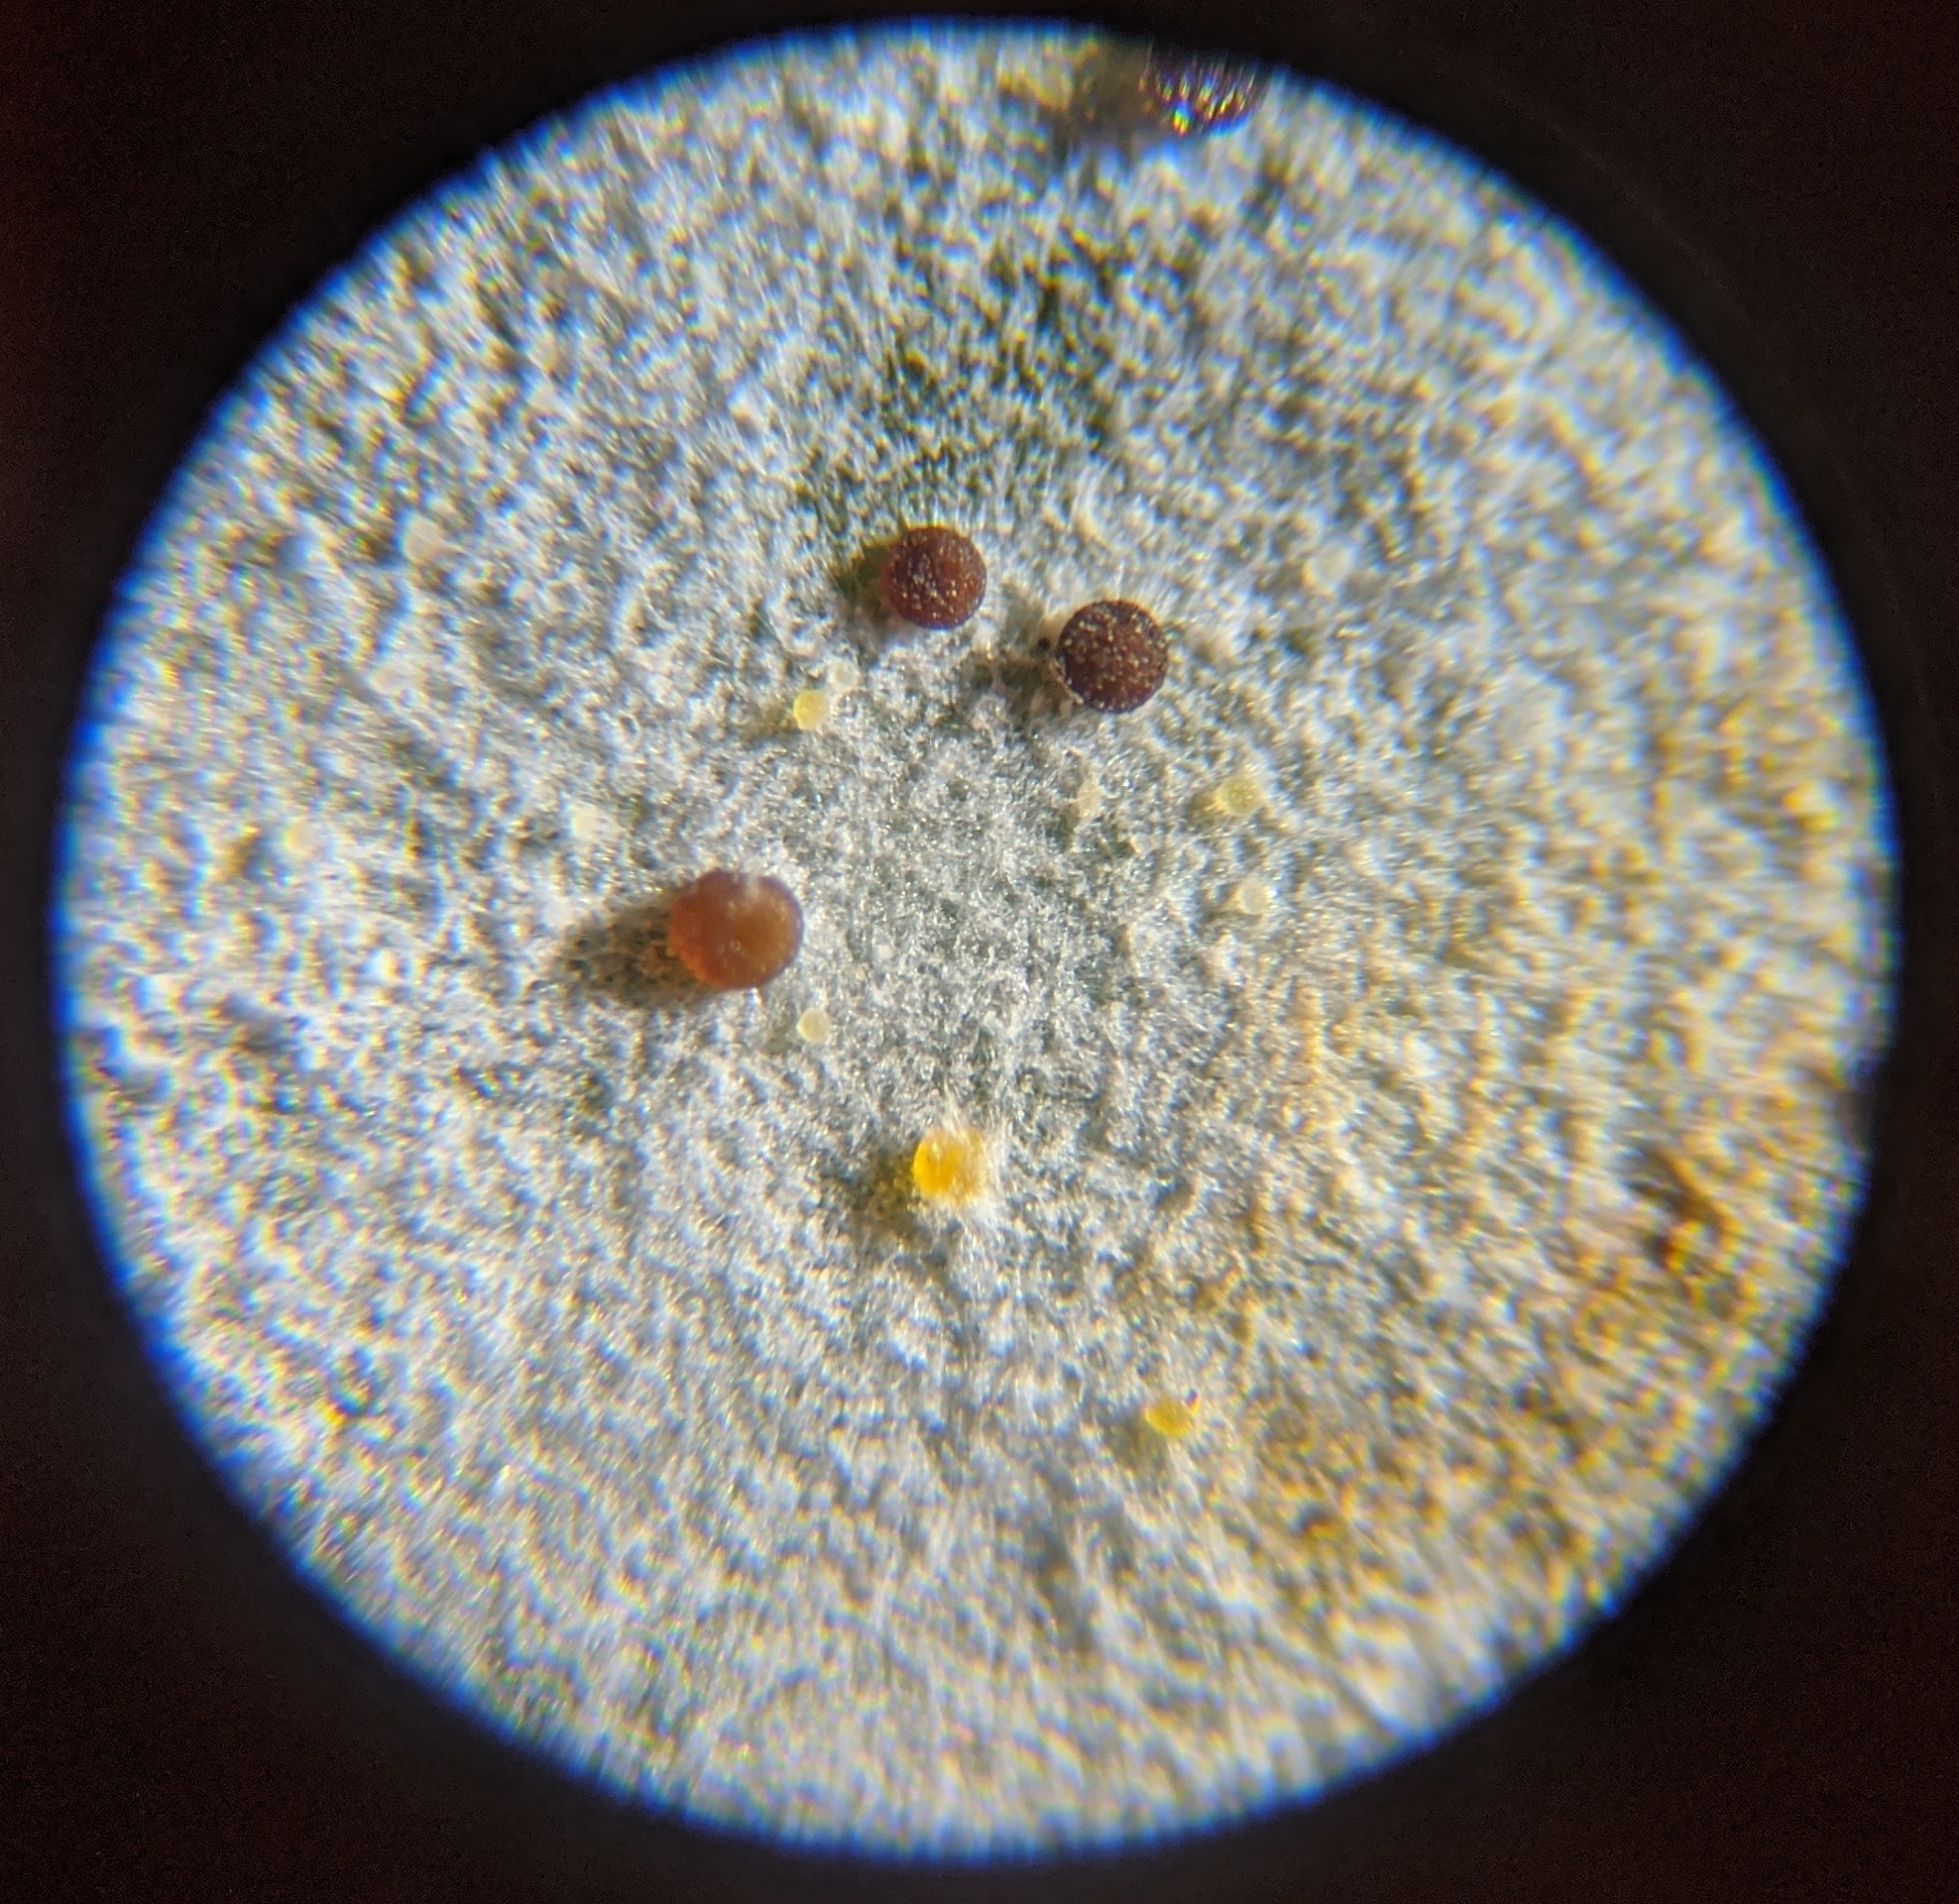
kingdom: Fungi
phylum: Ascomycota
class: Leotiomycetes
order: Helotiales
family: Erysiphaceae
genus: Sawadaea
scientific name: Sawadaea tulasnei
